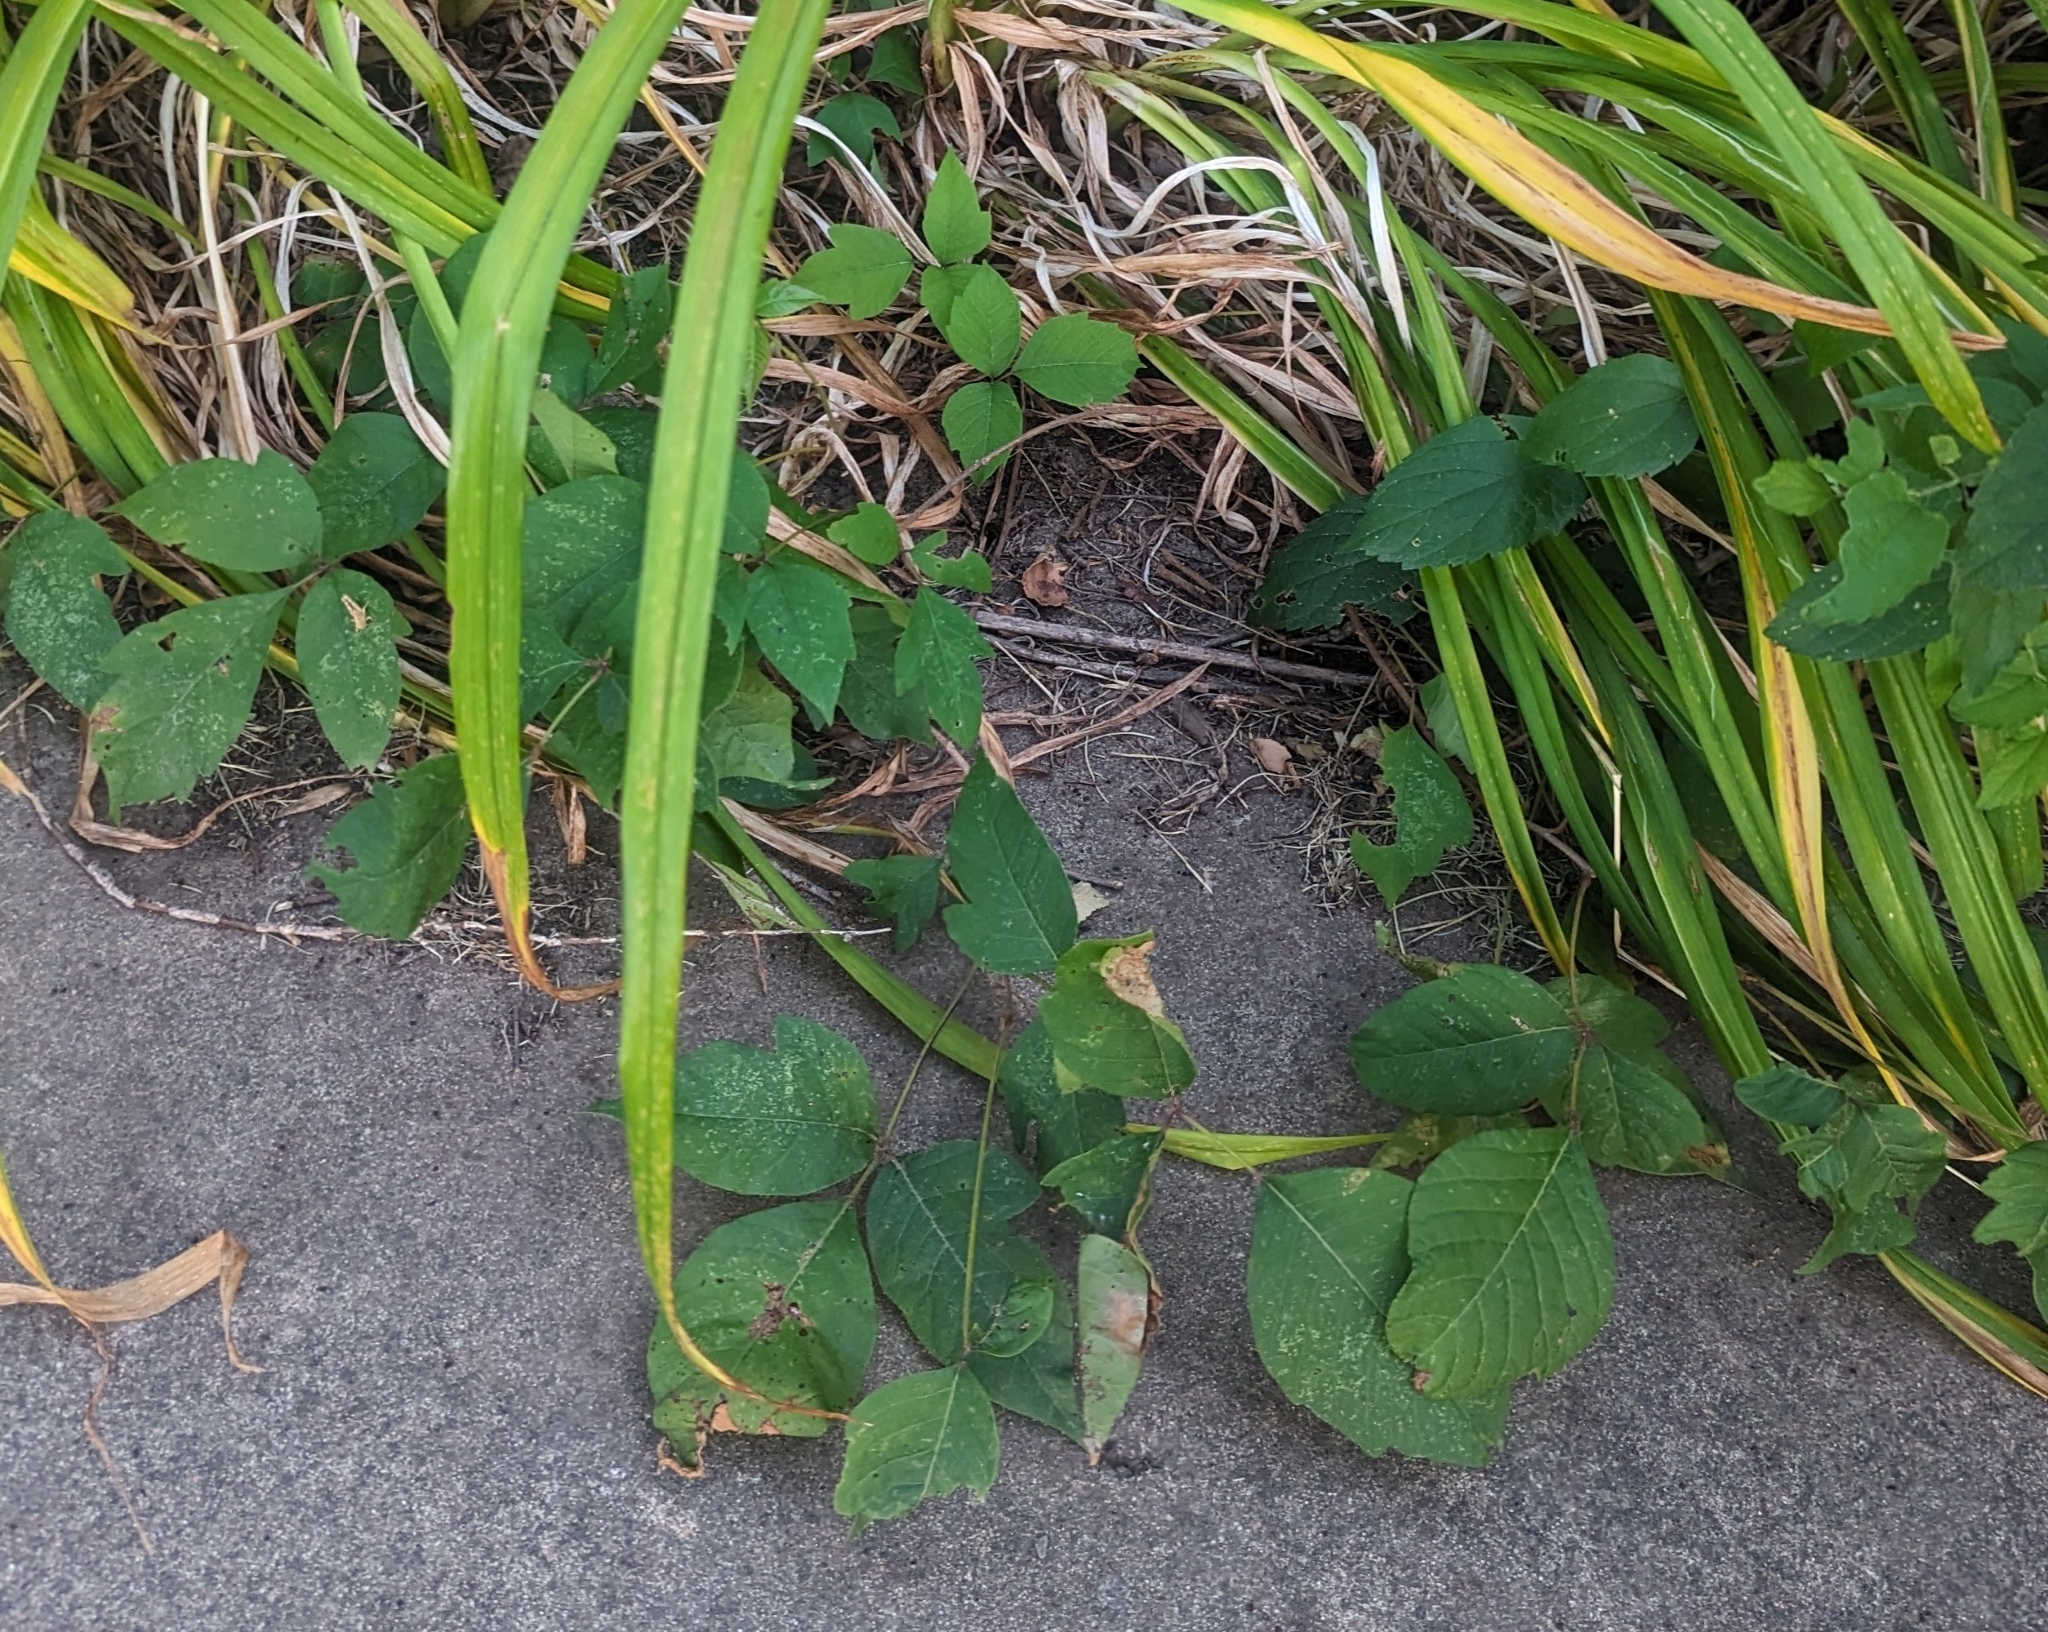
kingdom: Plantae
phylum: Tracheophyta
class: Magnoliopsida
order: Sapindales
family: Anacardiaceae
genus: Toxicodendron
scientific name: Toxicodendron radicans
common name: Poison ivy
